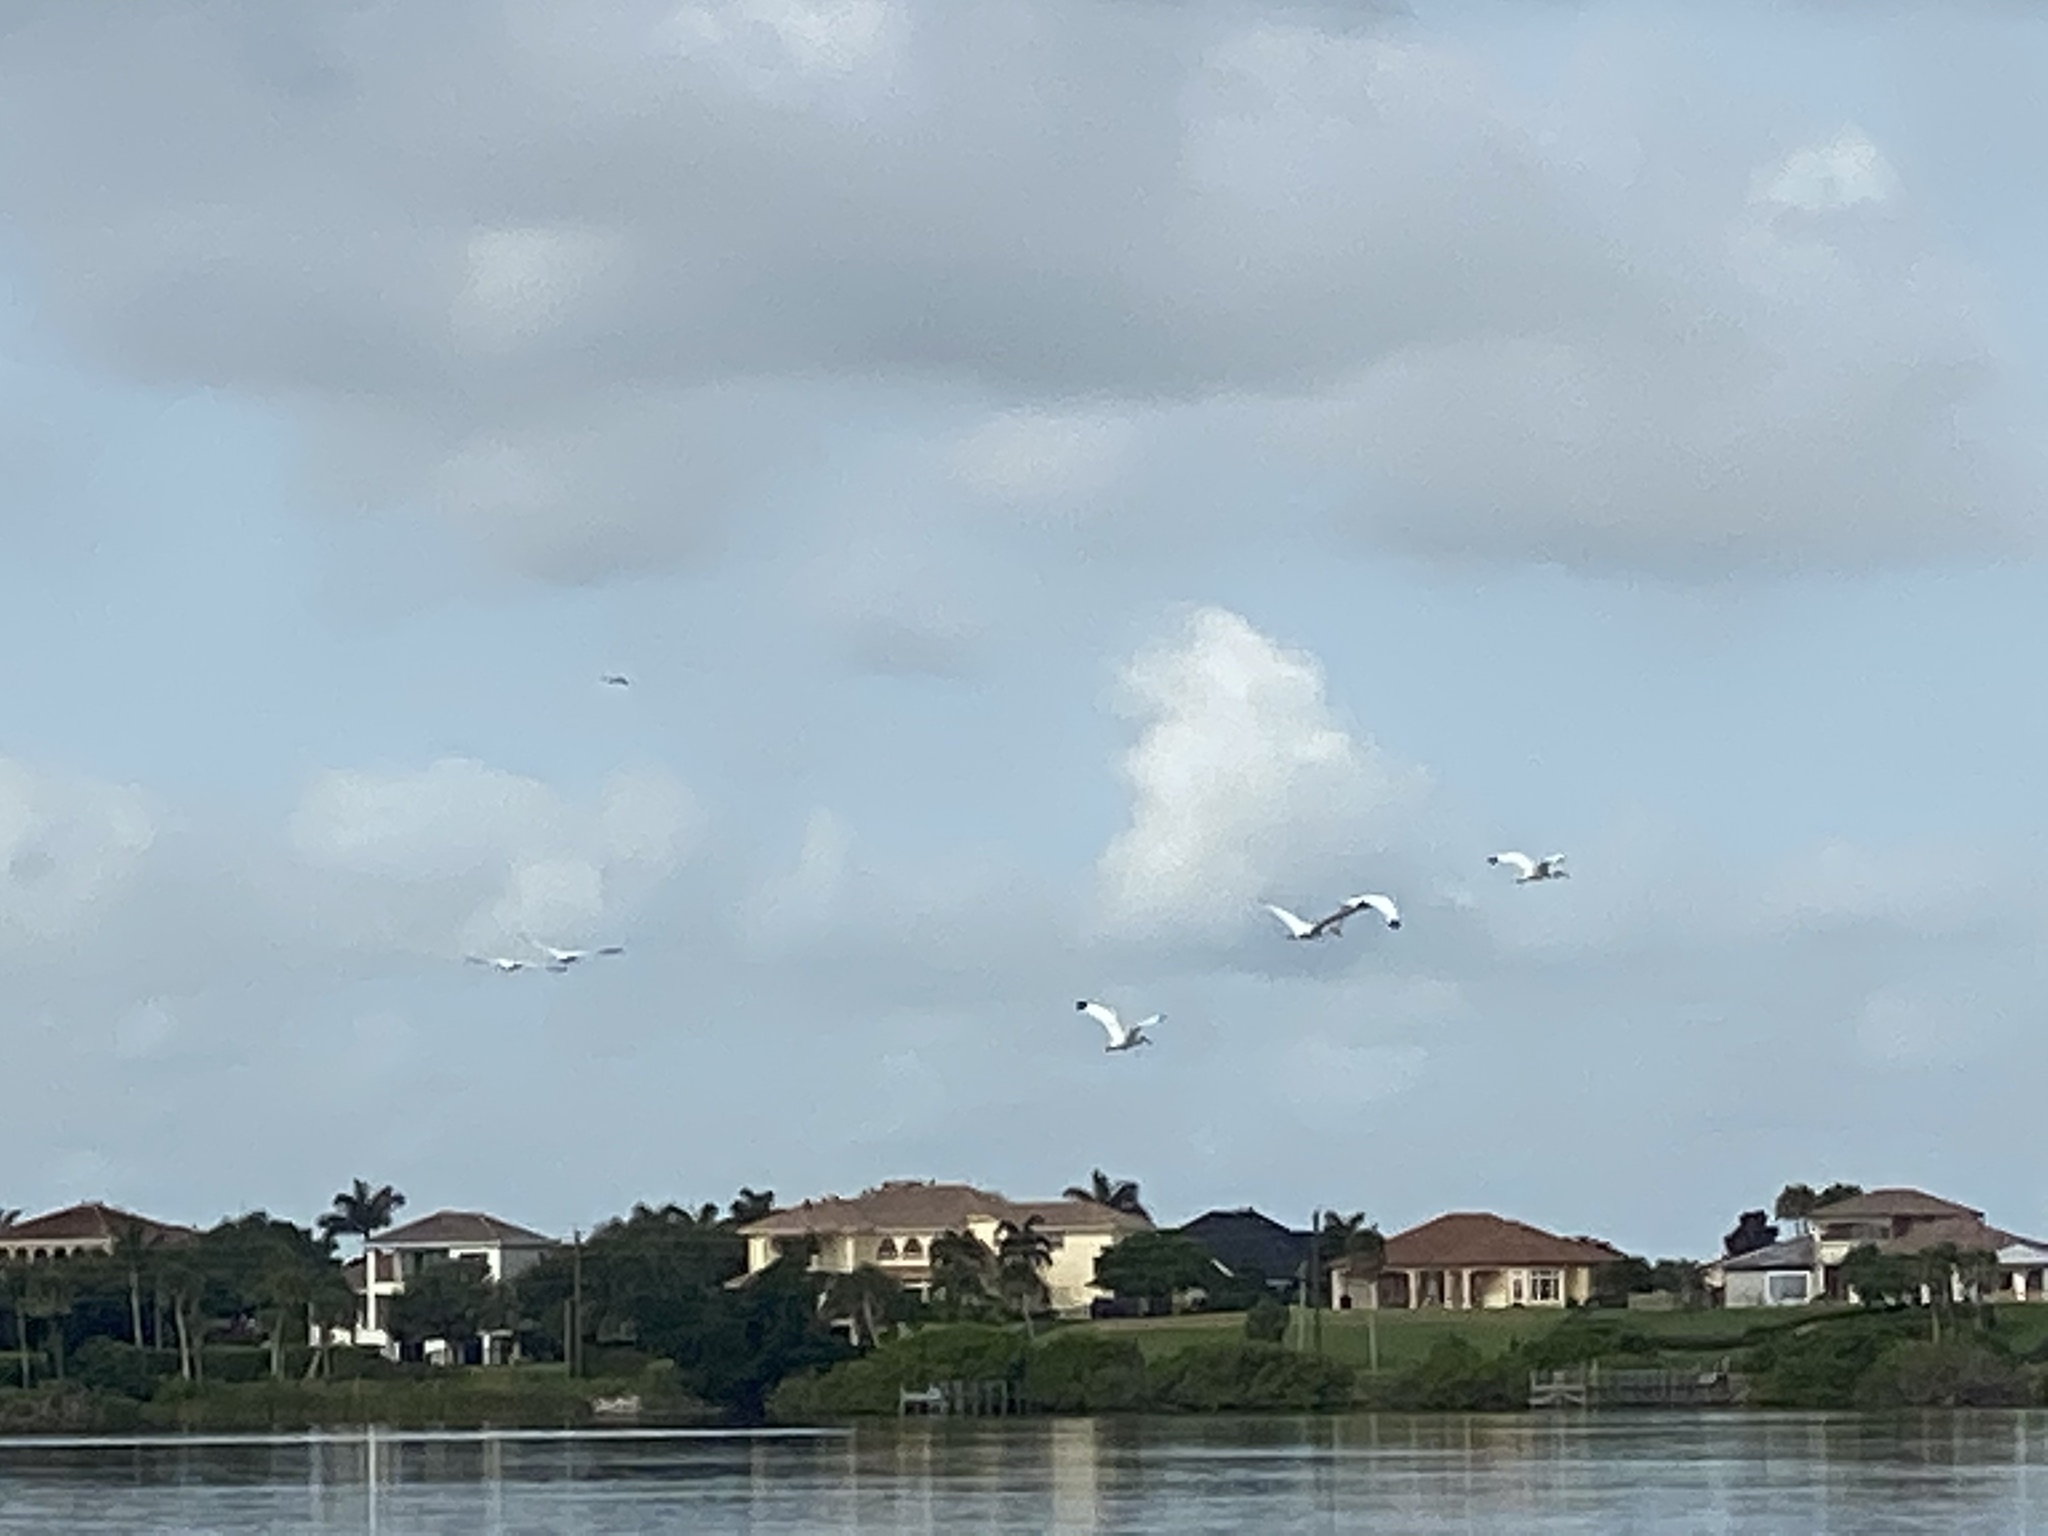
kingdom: Animalia
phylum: Chordata
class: Aves
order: Pelecaniformes
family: Threskiornithidae
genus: Eudocimus
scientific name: Eudocimus albus
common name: White ibis
